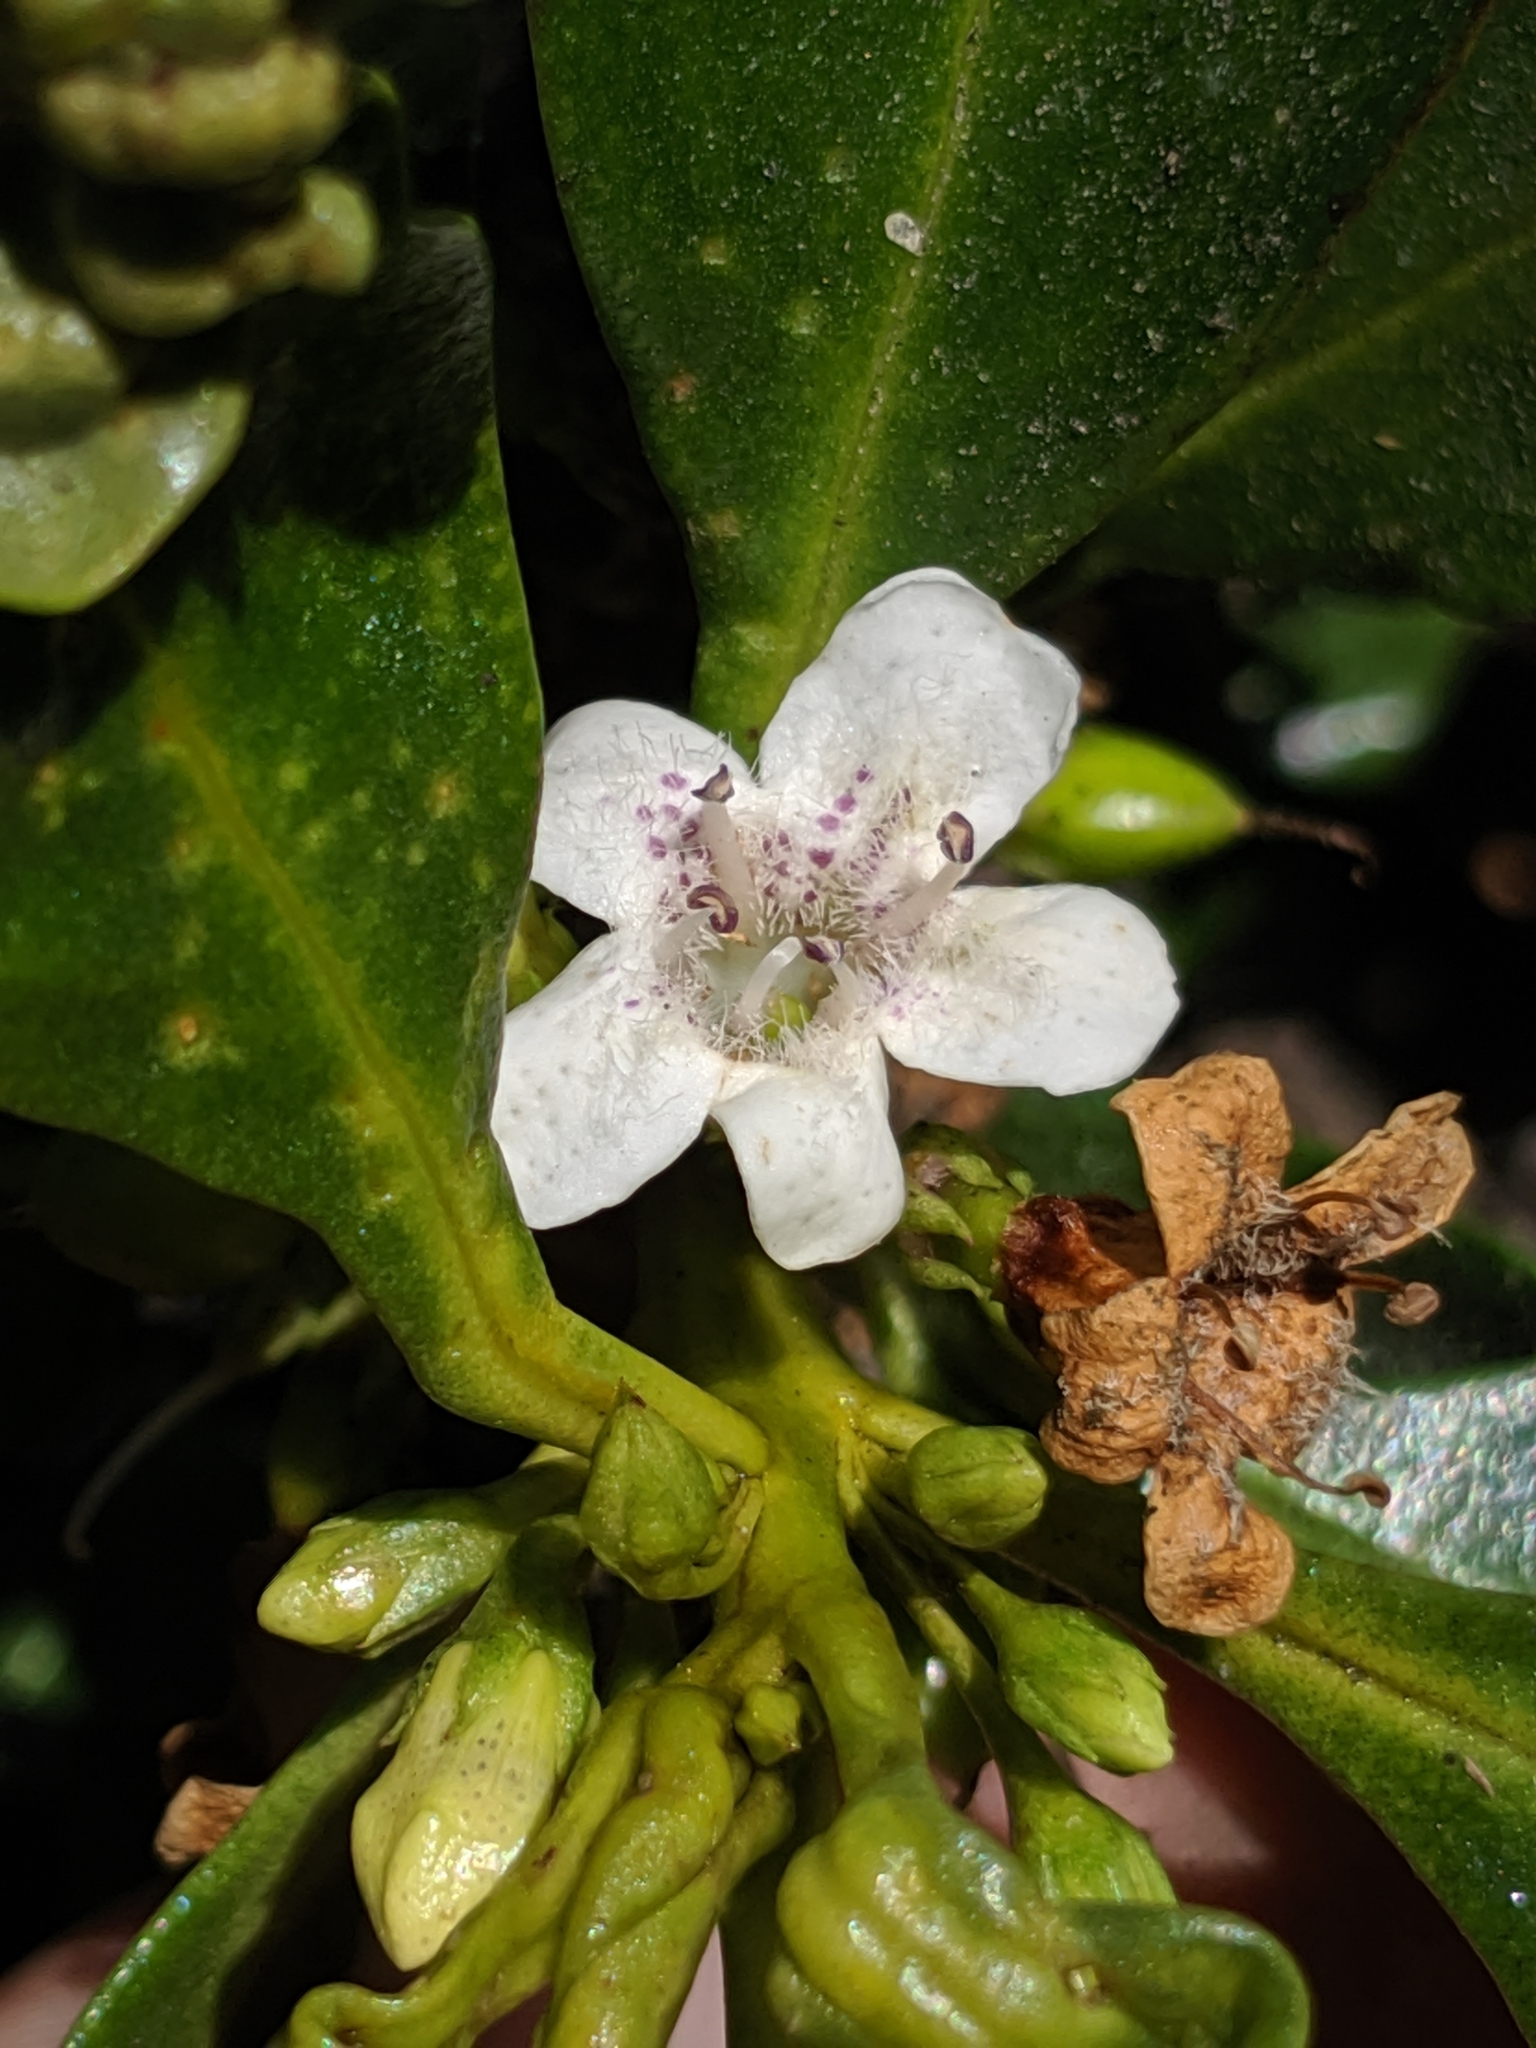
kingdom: Plantae
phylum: Tracheophyta
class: Magnoliopsida
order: Lamiales
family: Scrophulariaceae
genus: Myoporum
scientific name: Myoporum laetum
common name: Ngaio tree
